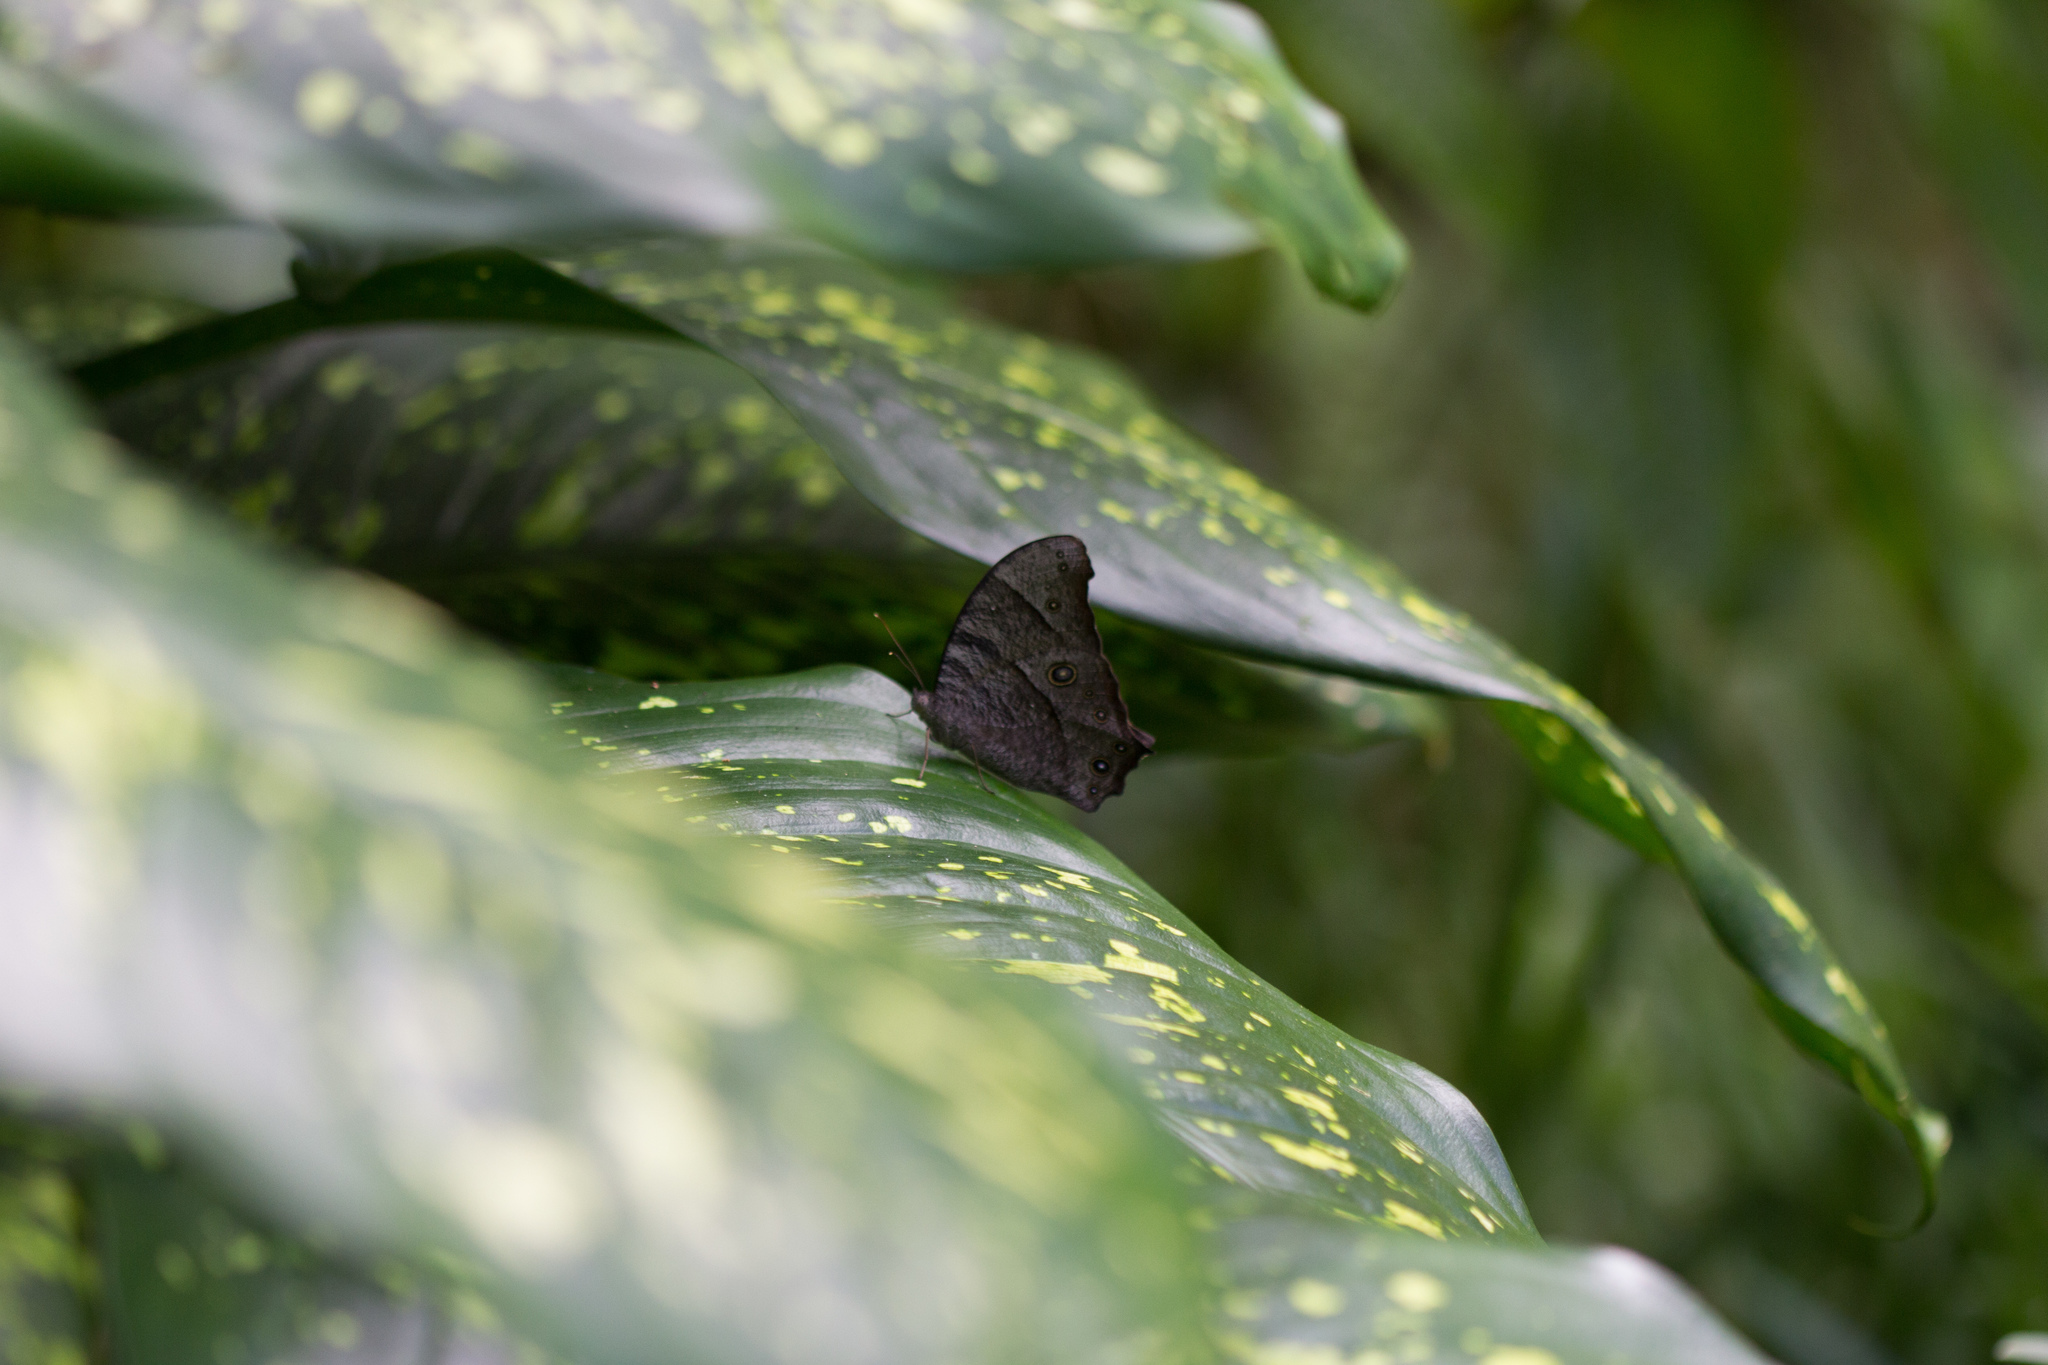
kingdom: Animalia
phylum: Arthropoda
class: Insecta
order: Lepidoptera
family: Nymphalidae
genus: Melanitis
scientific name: Melanitis leda
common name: Twilight brown
